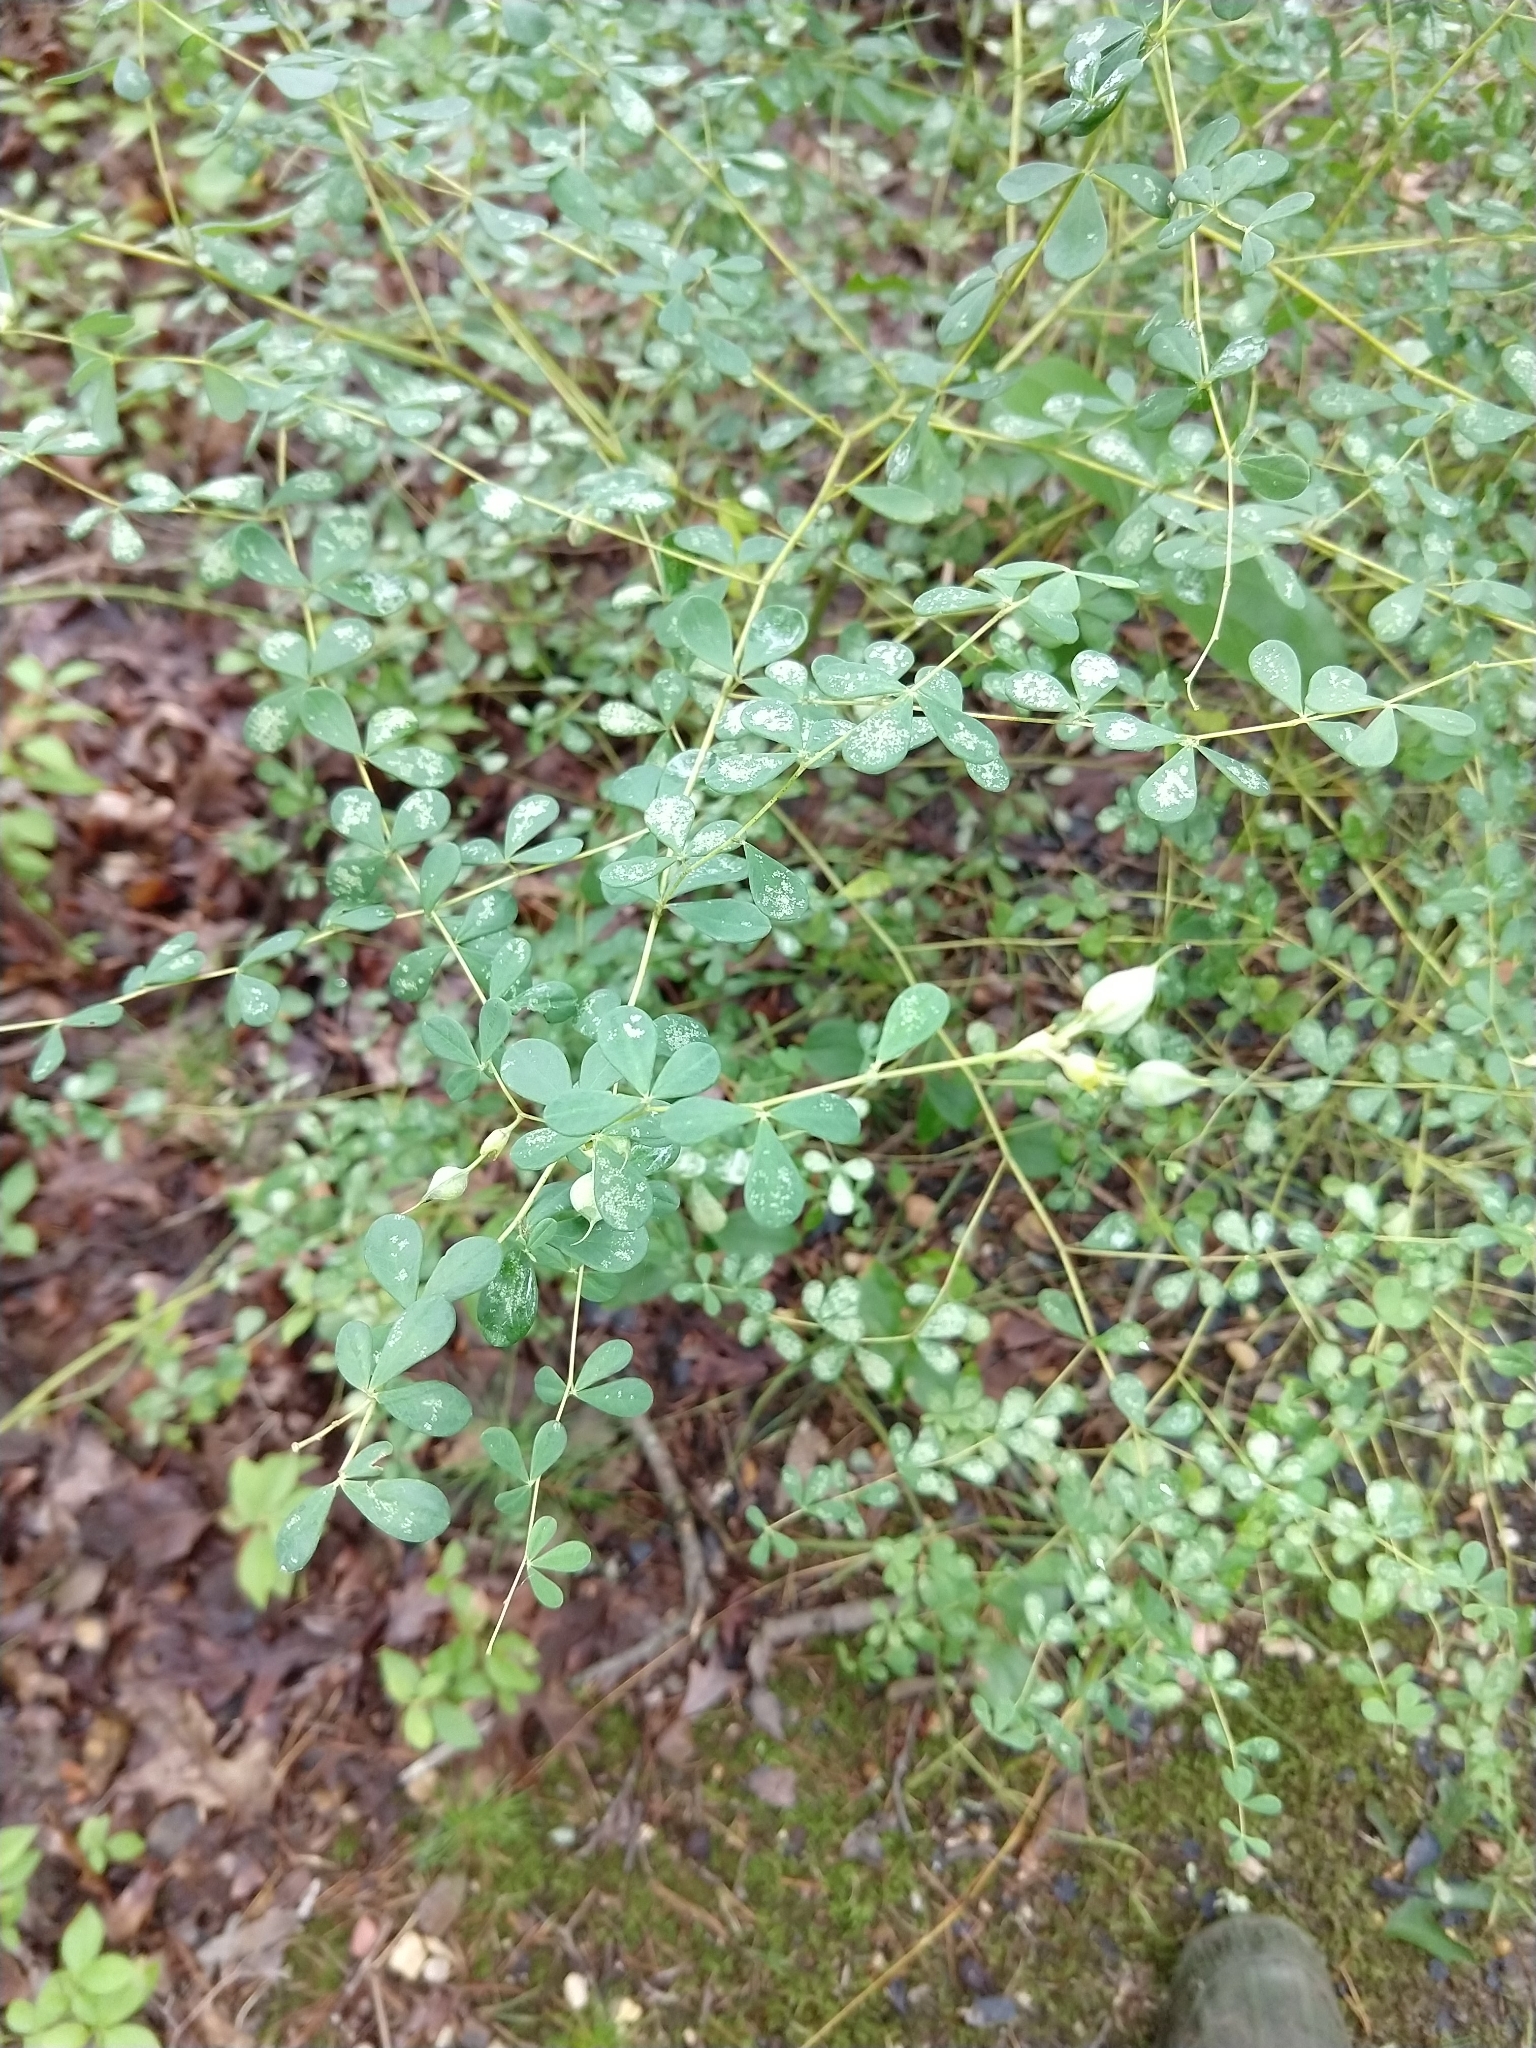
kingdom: Plantae
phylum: Tracheophyta
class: Magnoliopsida
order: Fabales
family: Fabaceae
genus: Baptisia
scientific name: Baptisia tinctoria
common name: Wild indigo
